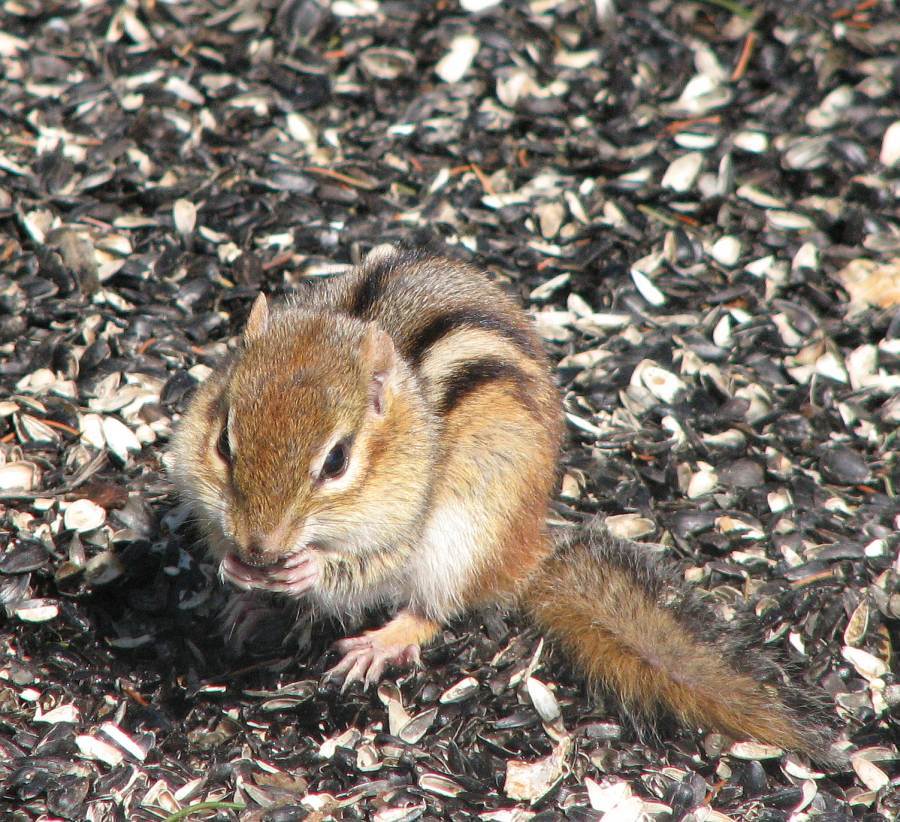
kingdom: Animalia
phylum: Chordata
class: Mammalia
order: Rodentia
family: Sciuridae
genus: Tamias
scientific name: Tamias striatus
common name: Eastern chipmunk
